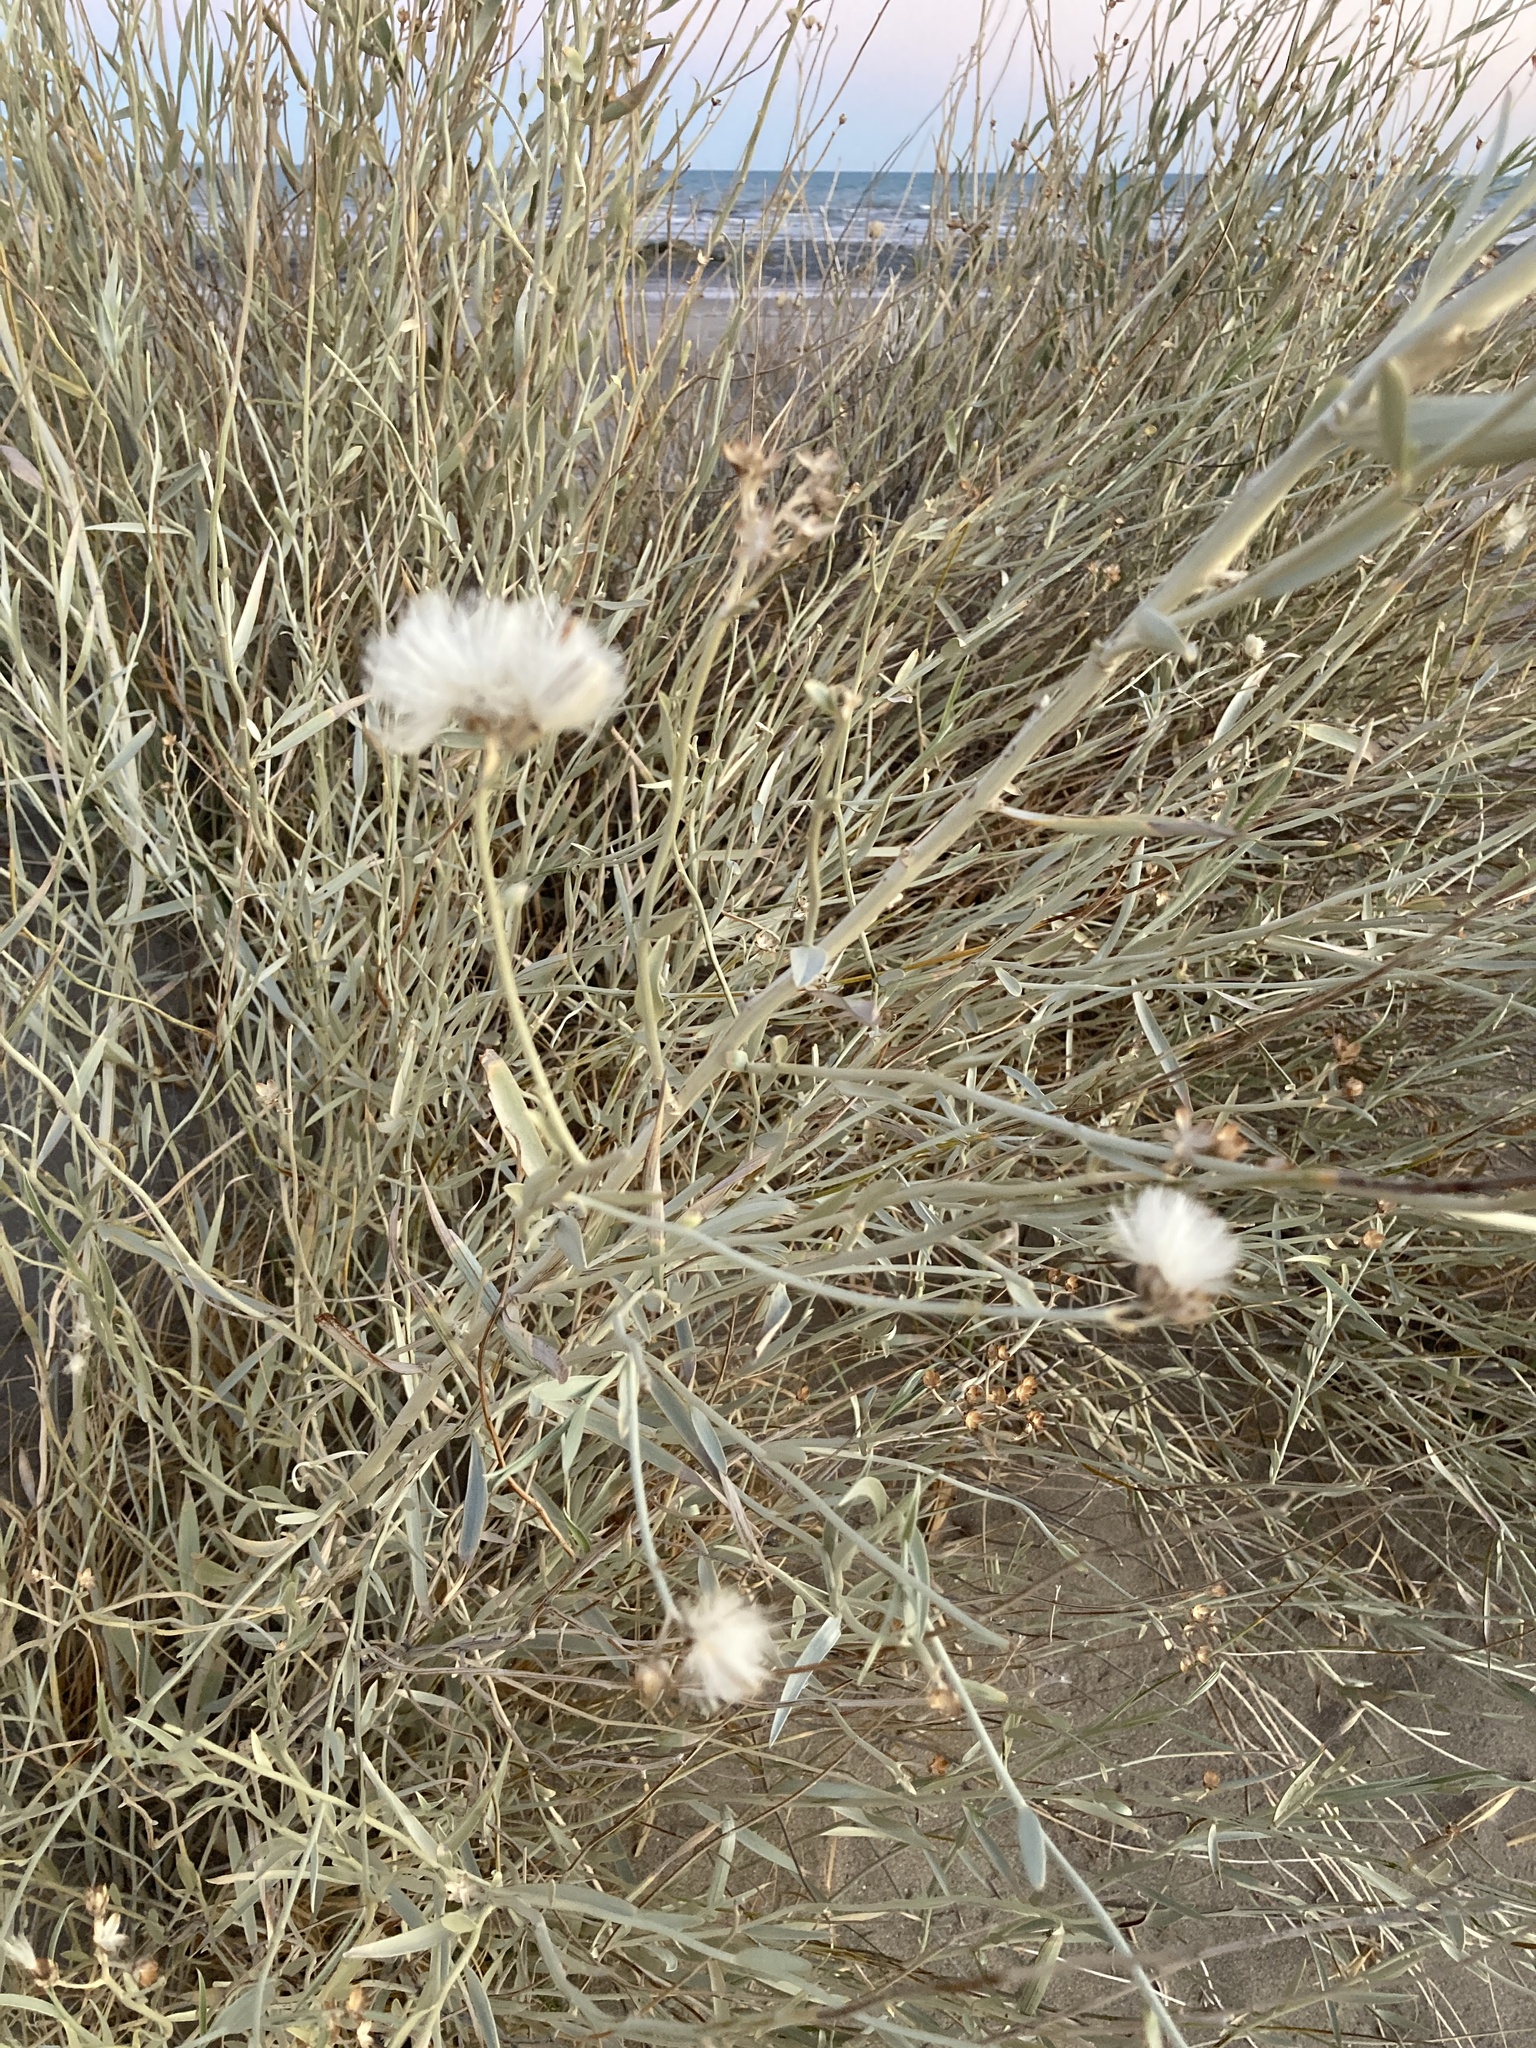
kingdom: Plantae
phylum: Tracheophyta
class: Magnoliopsida
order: Asterales
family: Asteraceae
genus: Hyalis
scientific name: Hyalis argentea
